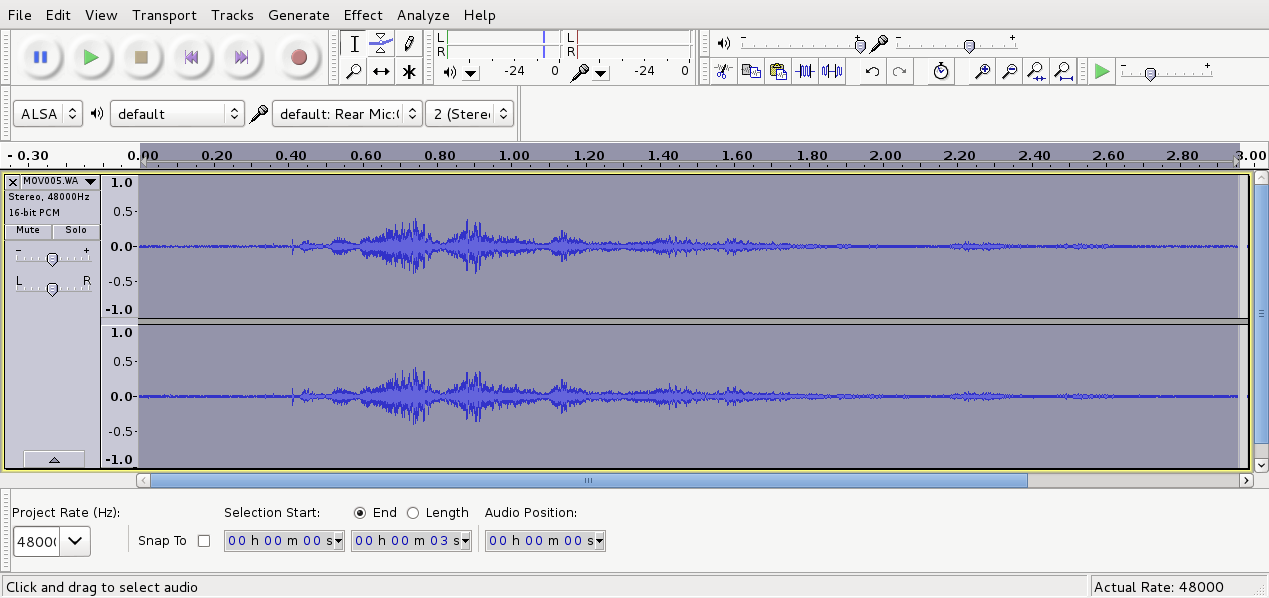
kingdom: Animalia
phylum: Chordata
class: Aves
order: Passeriformes
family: Turdidae
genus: Turdus
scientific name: Turdus merula
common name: Common blackbird
